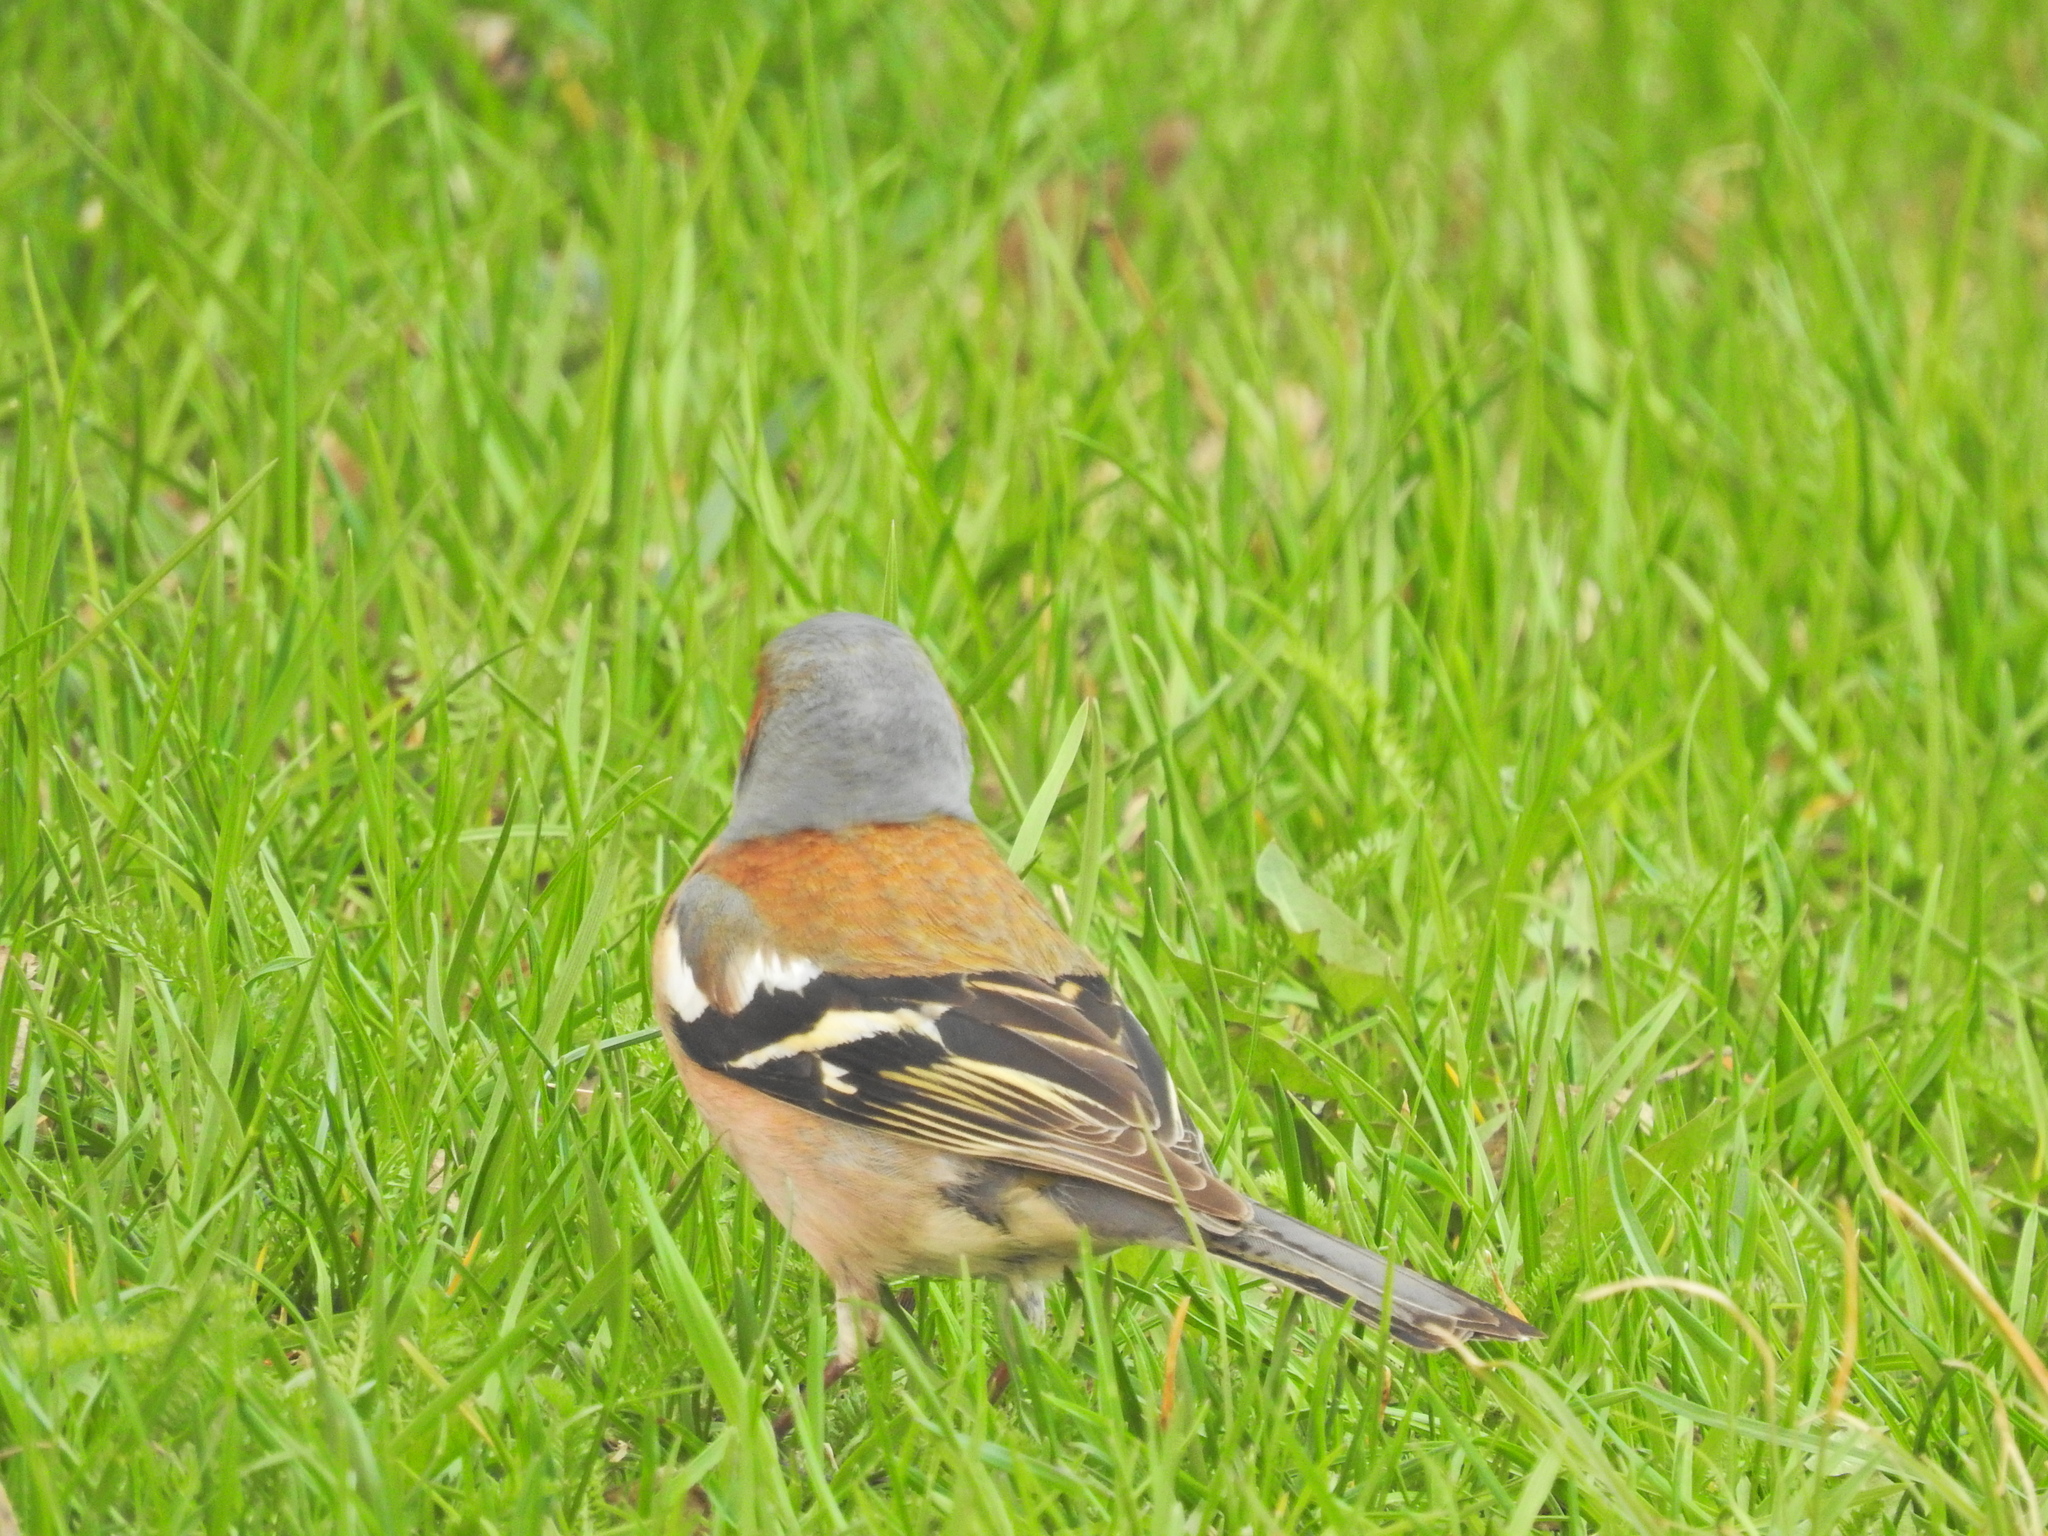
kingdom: Animalia
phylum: Chordata
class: Aves
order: Passeriformes
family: Fringillidae
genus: Fringilla
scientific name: Fringilla coelebs
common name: Common chaffinch
